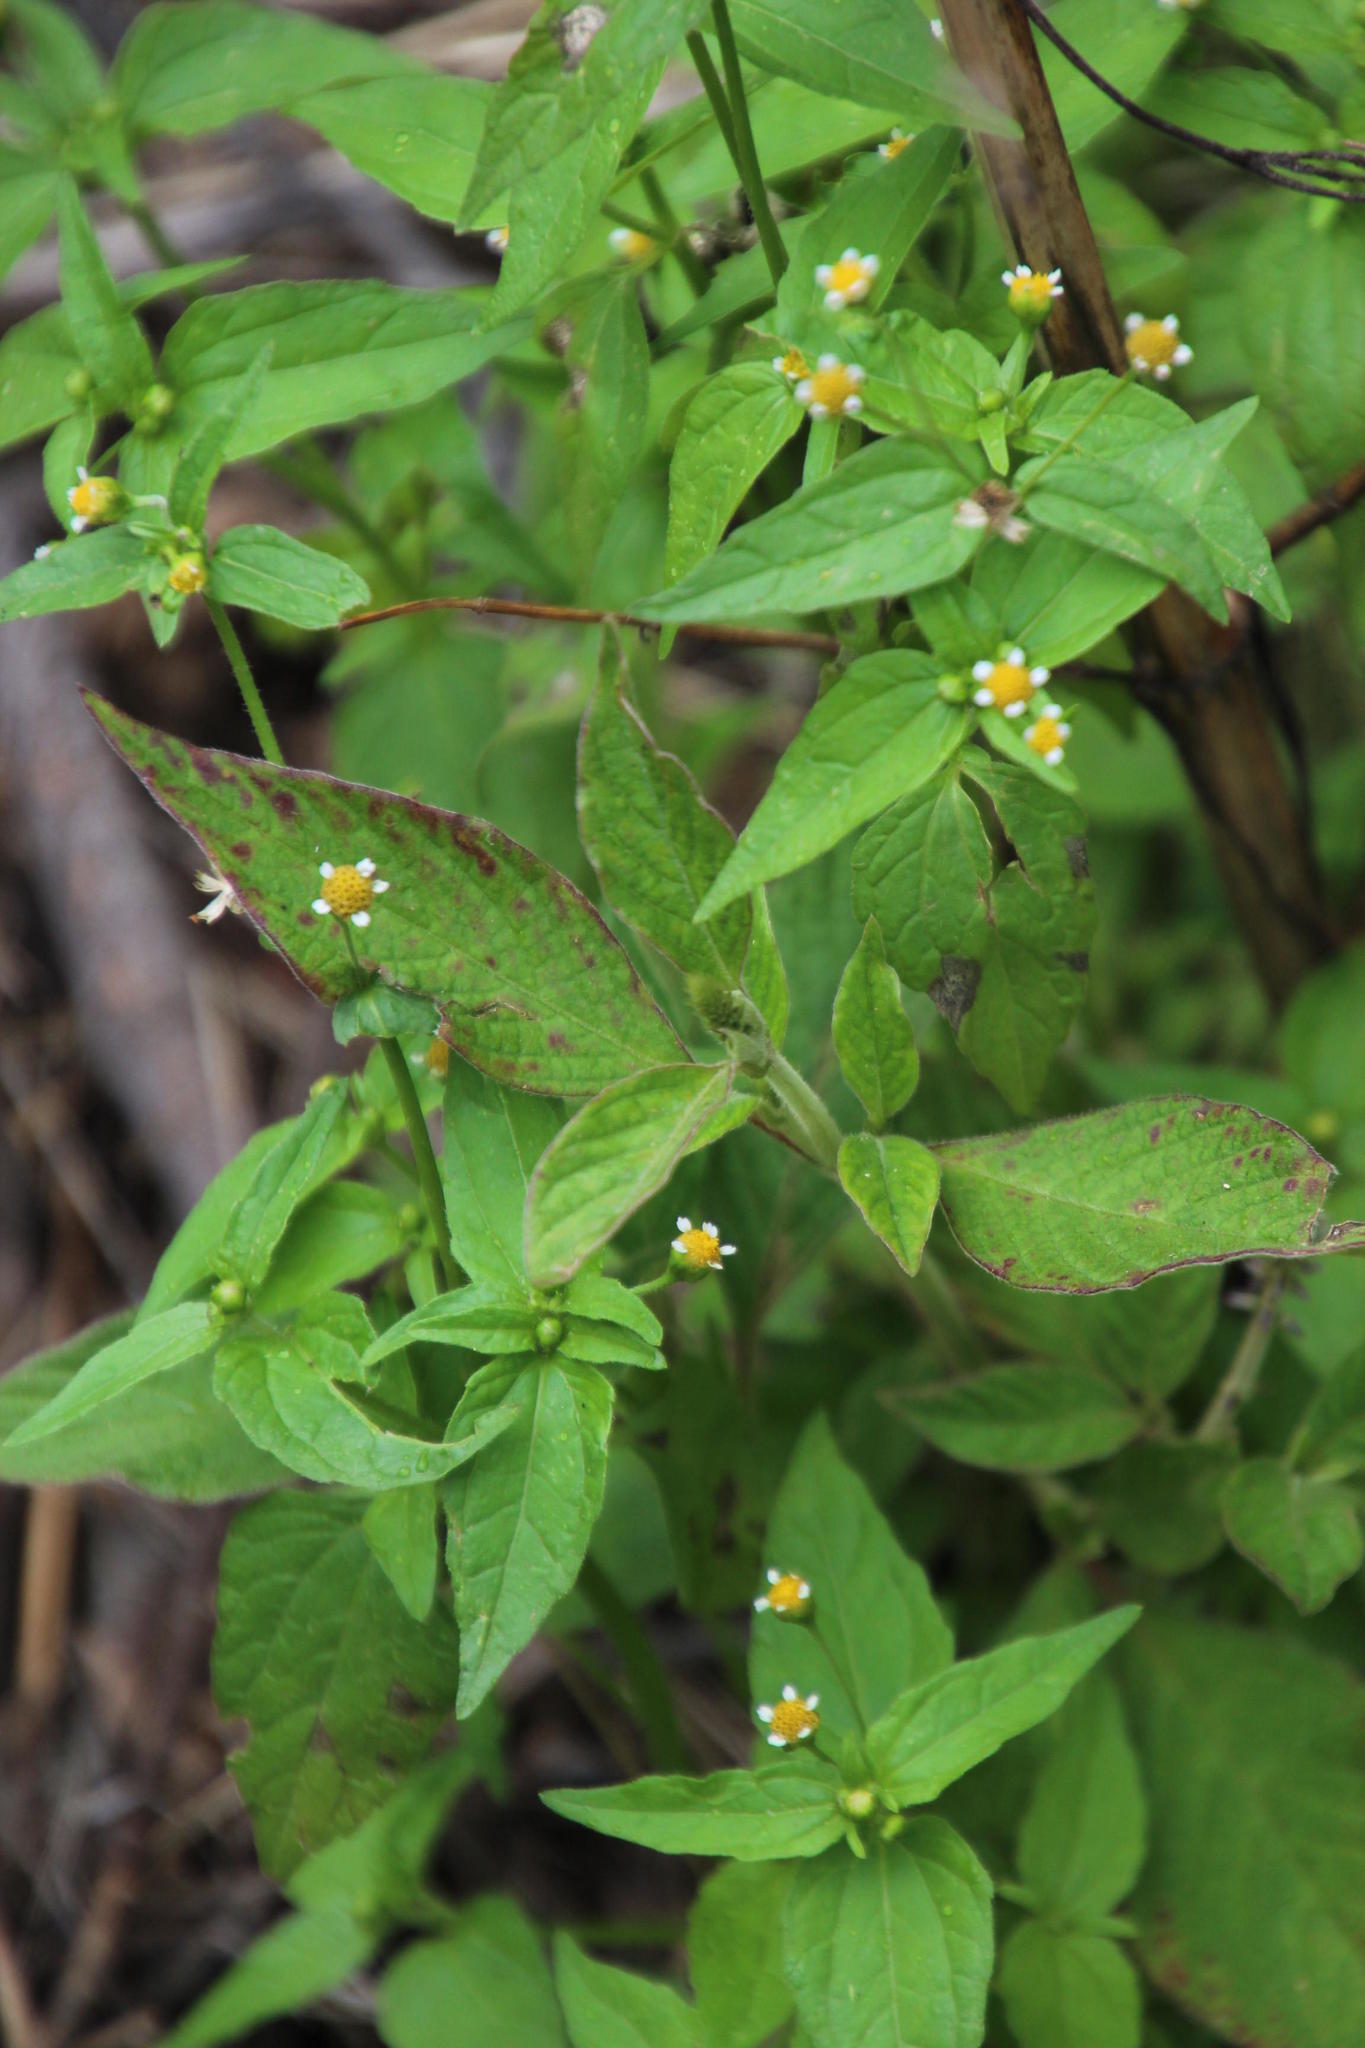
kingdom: Plantae
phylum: Tracheophyta
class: Magnoliopsida
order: Asterales
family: Asteraceae
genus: Galinsoga
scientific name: Galinsoga parviflora
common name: Gallant soldier
